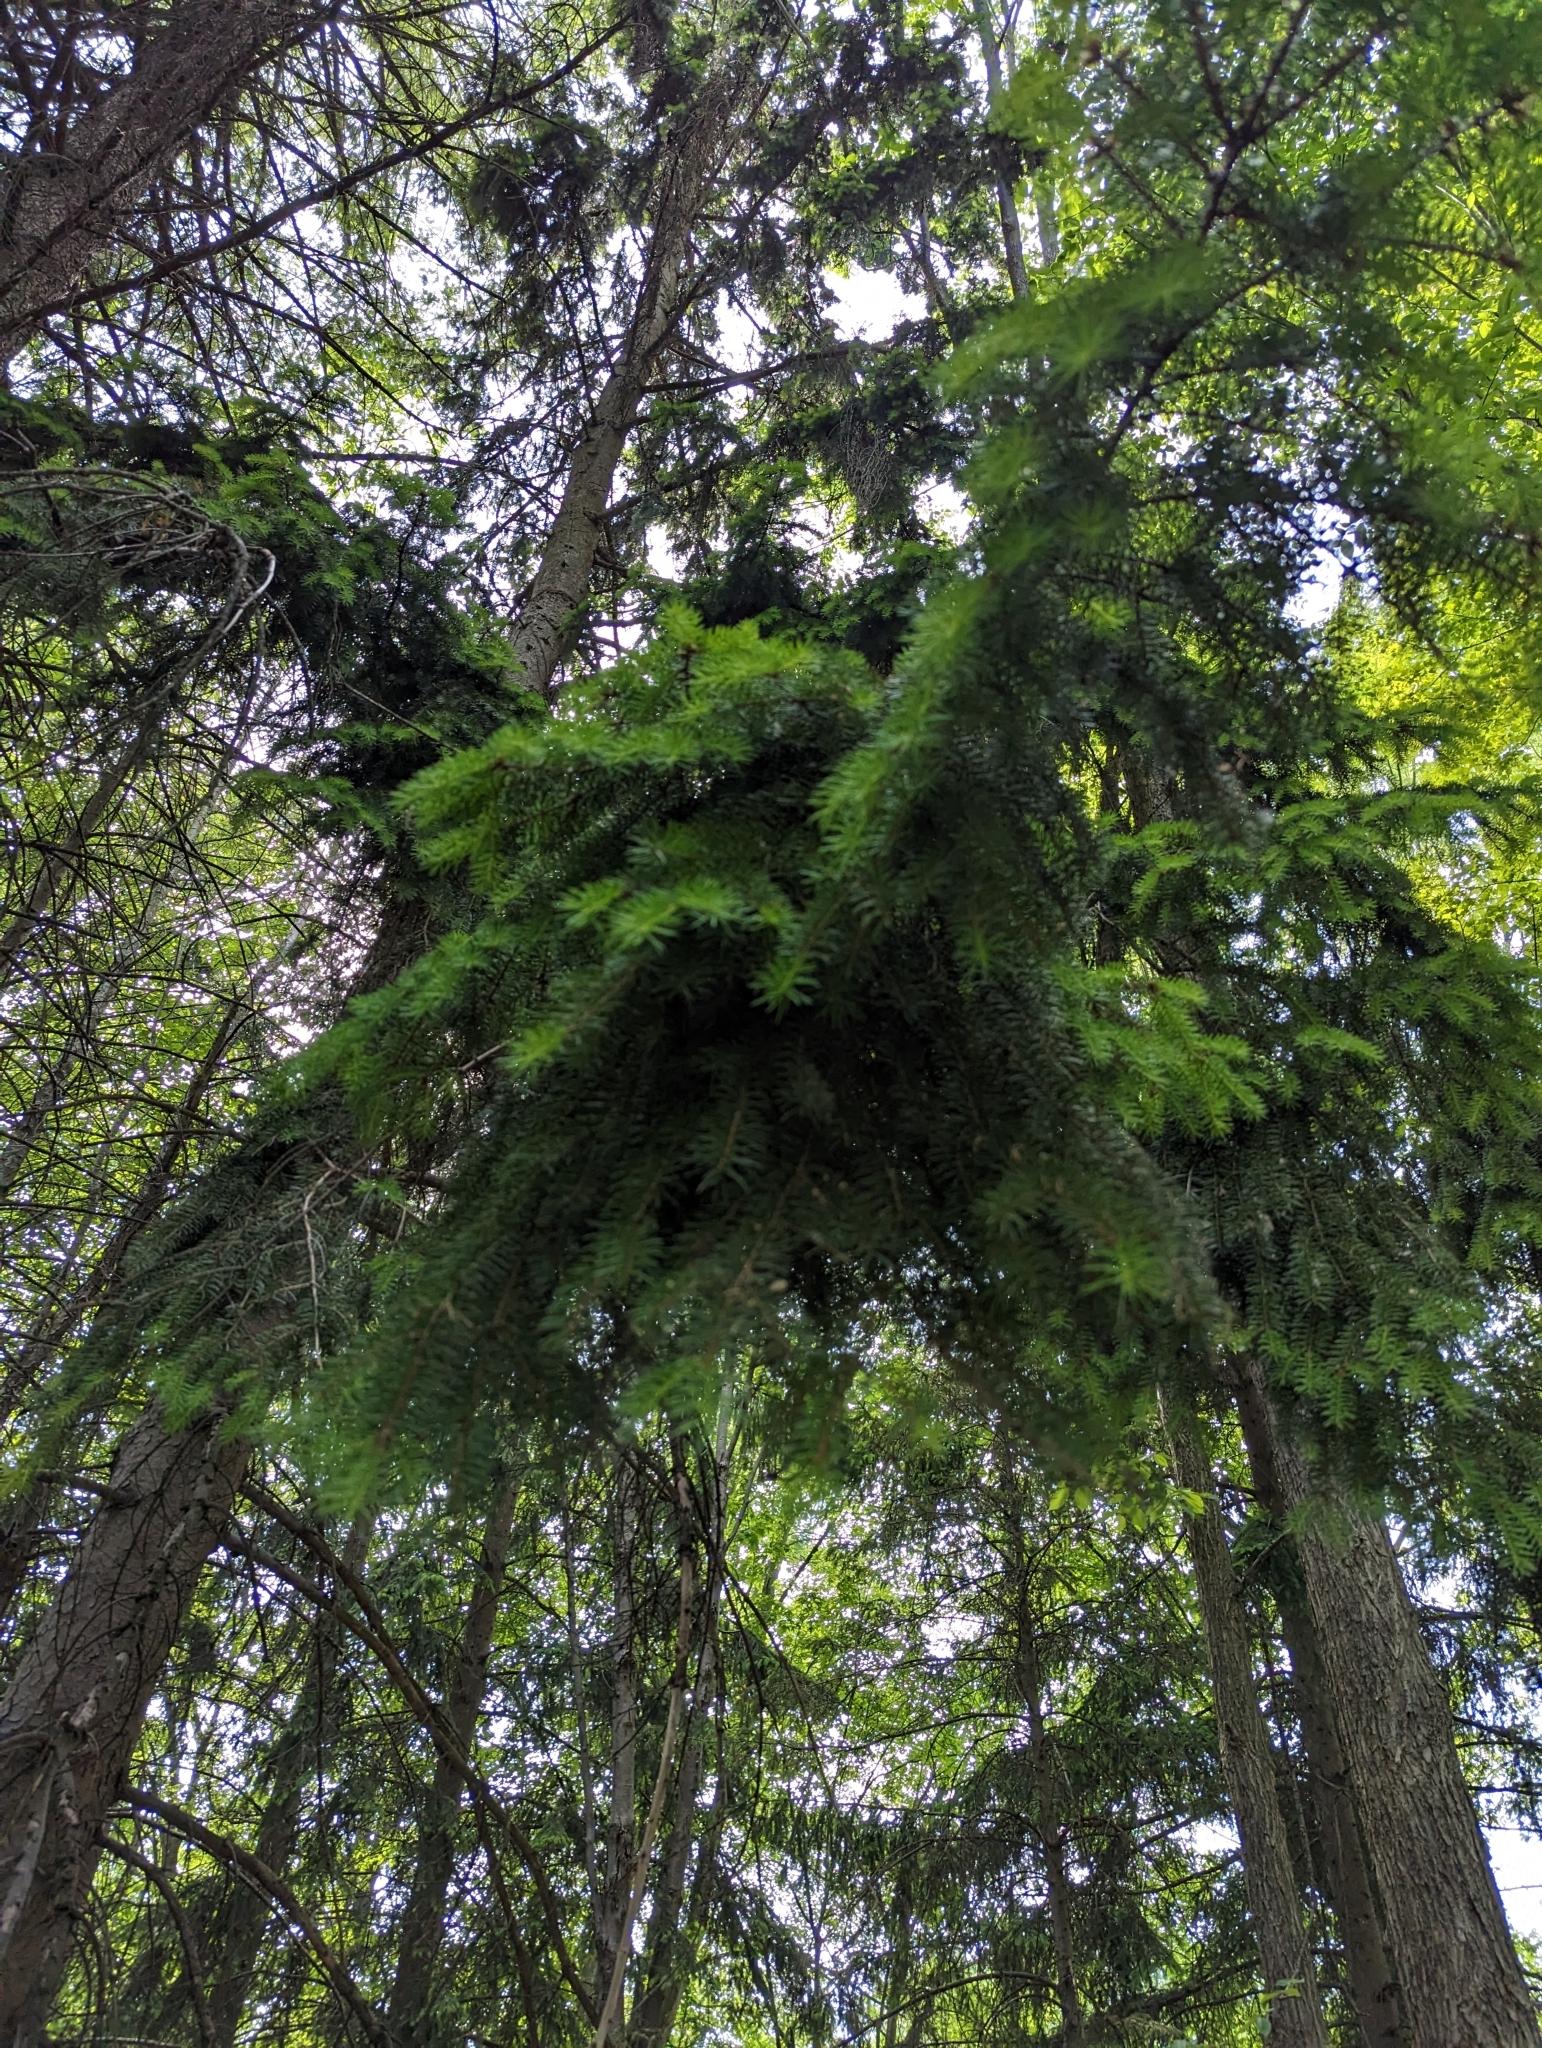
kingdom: Plantae
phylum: Tracheophyta
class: Pinopsida
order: Pinales
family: Pinaceae
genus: Picea
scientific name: Picea abies
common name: Norway spruce
